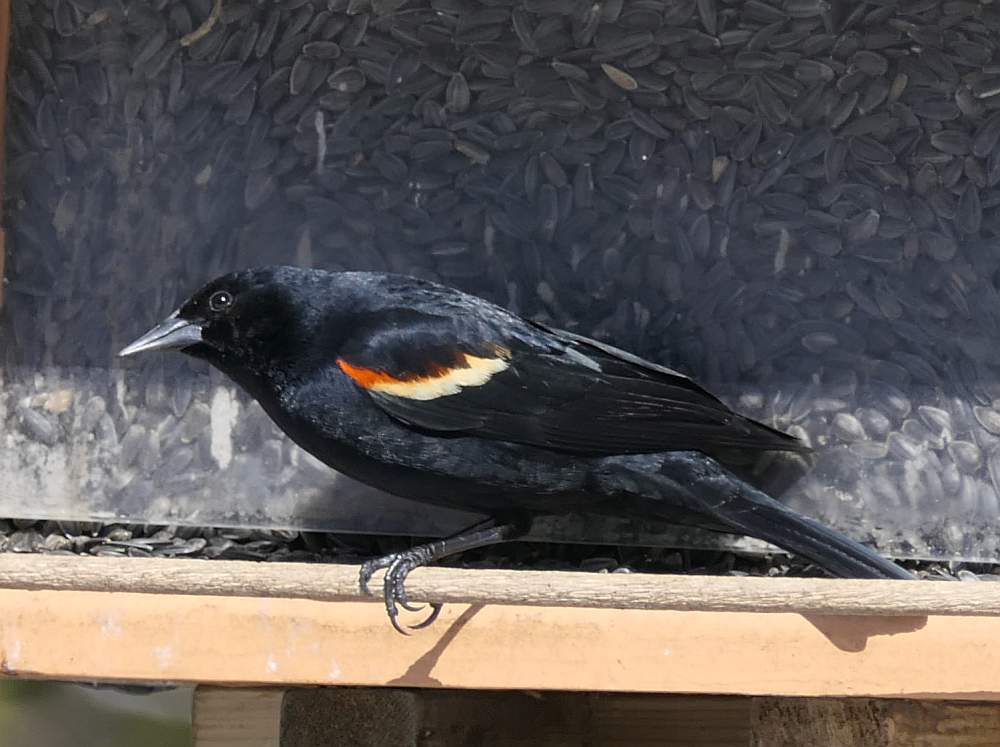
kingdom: Animalia
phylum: Chordata
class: Aves
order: Passeriformes
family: Icteridae
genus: Agelaius
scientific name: Agelaius phoeniceus
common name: Red-winged blackbird
